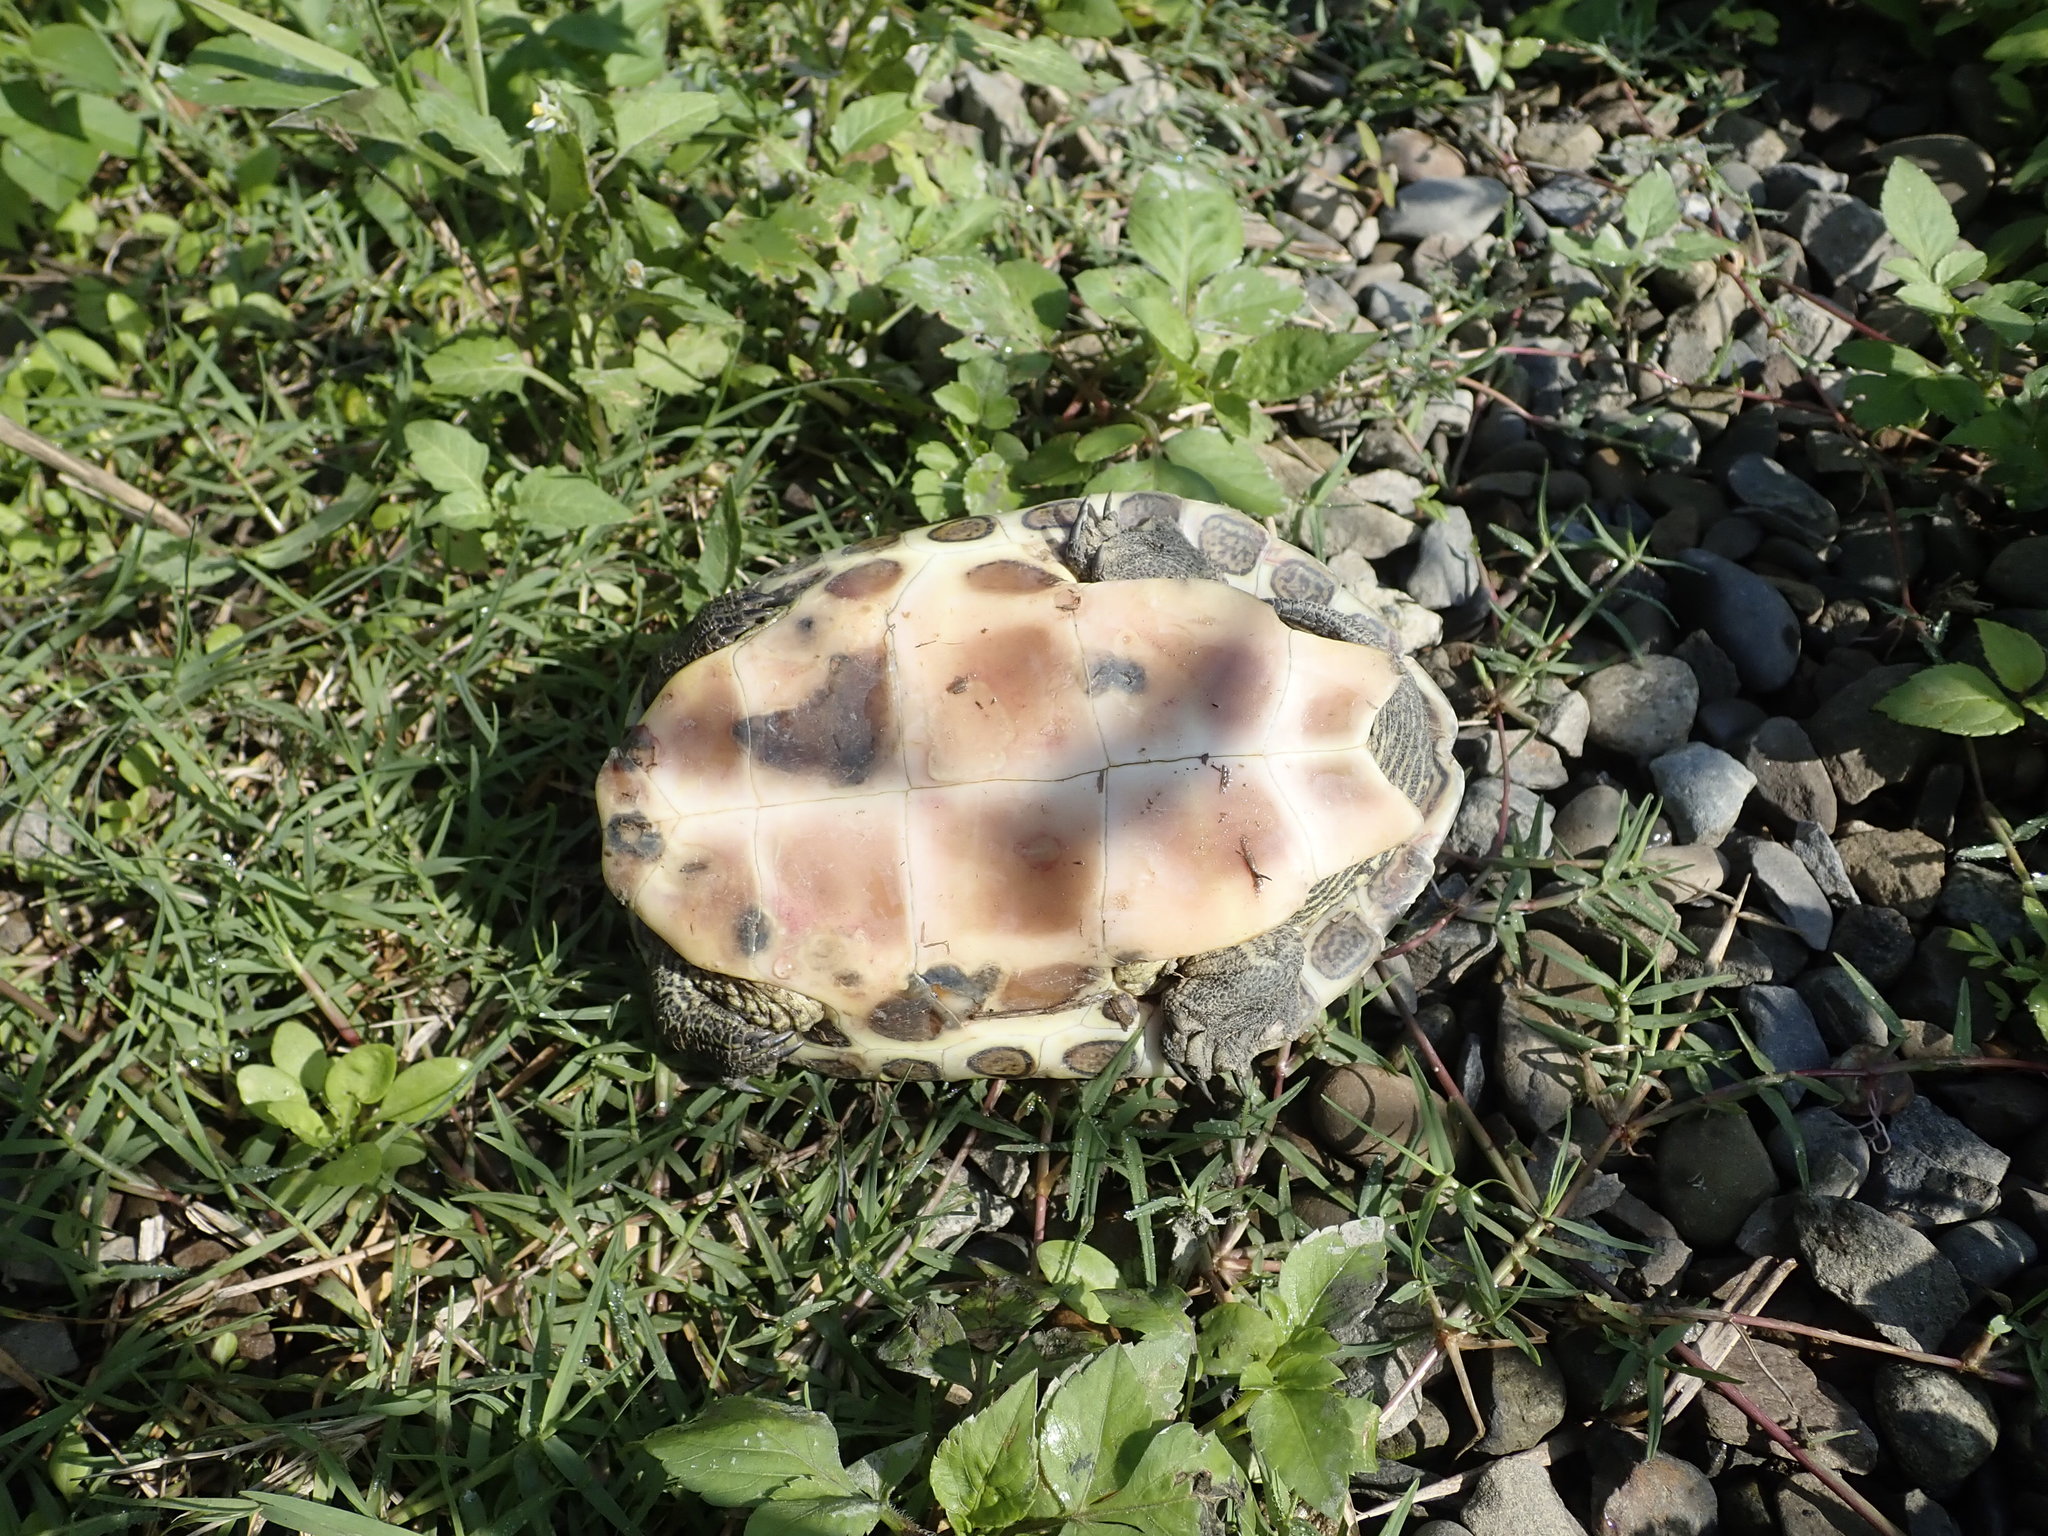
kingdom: Animalia
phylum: Chordata
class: Testudines
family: Geoemydidae
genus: Mauremys
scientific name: Mauremys sinensis
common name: Chinese stripe-necked turtle
